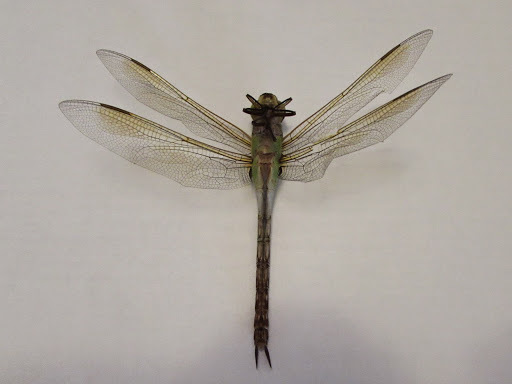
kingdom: Animalia
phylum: Arthropoda
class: Insecta
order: Odonata
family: Aeshnidae
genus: Anax
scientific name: Anax junius
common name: Common green darner
